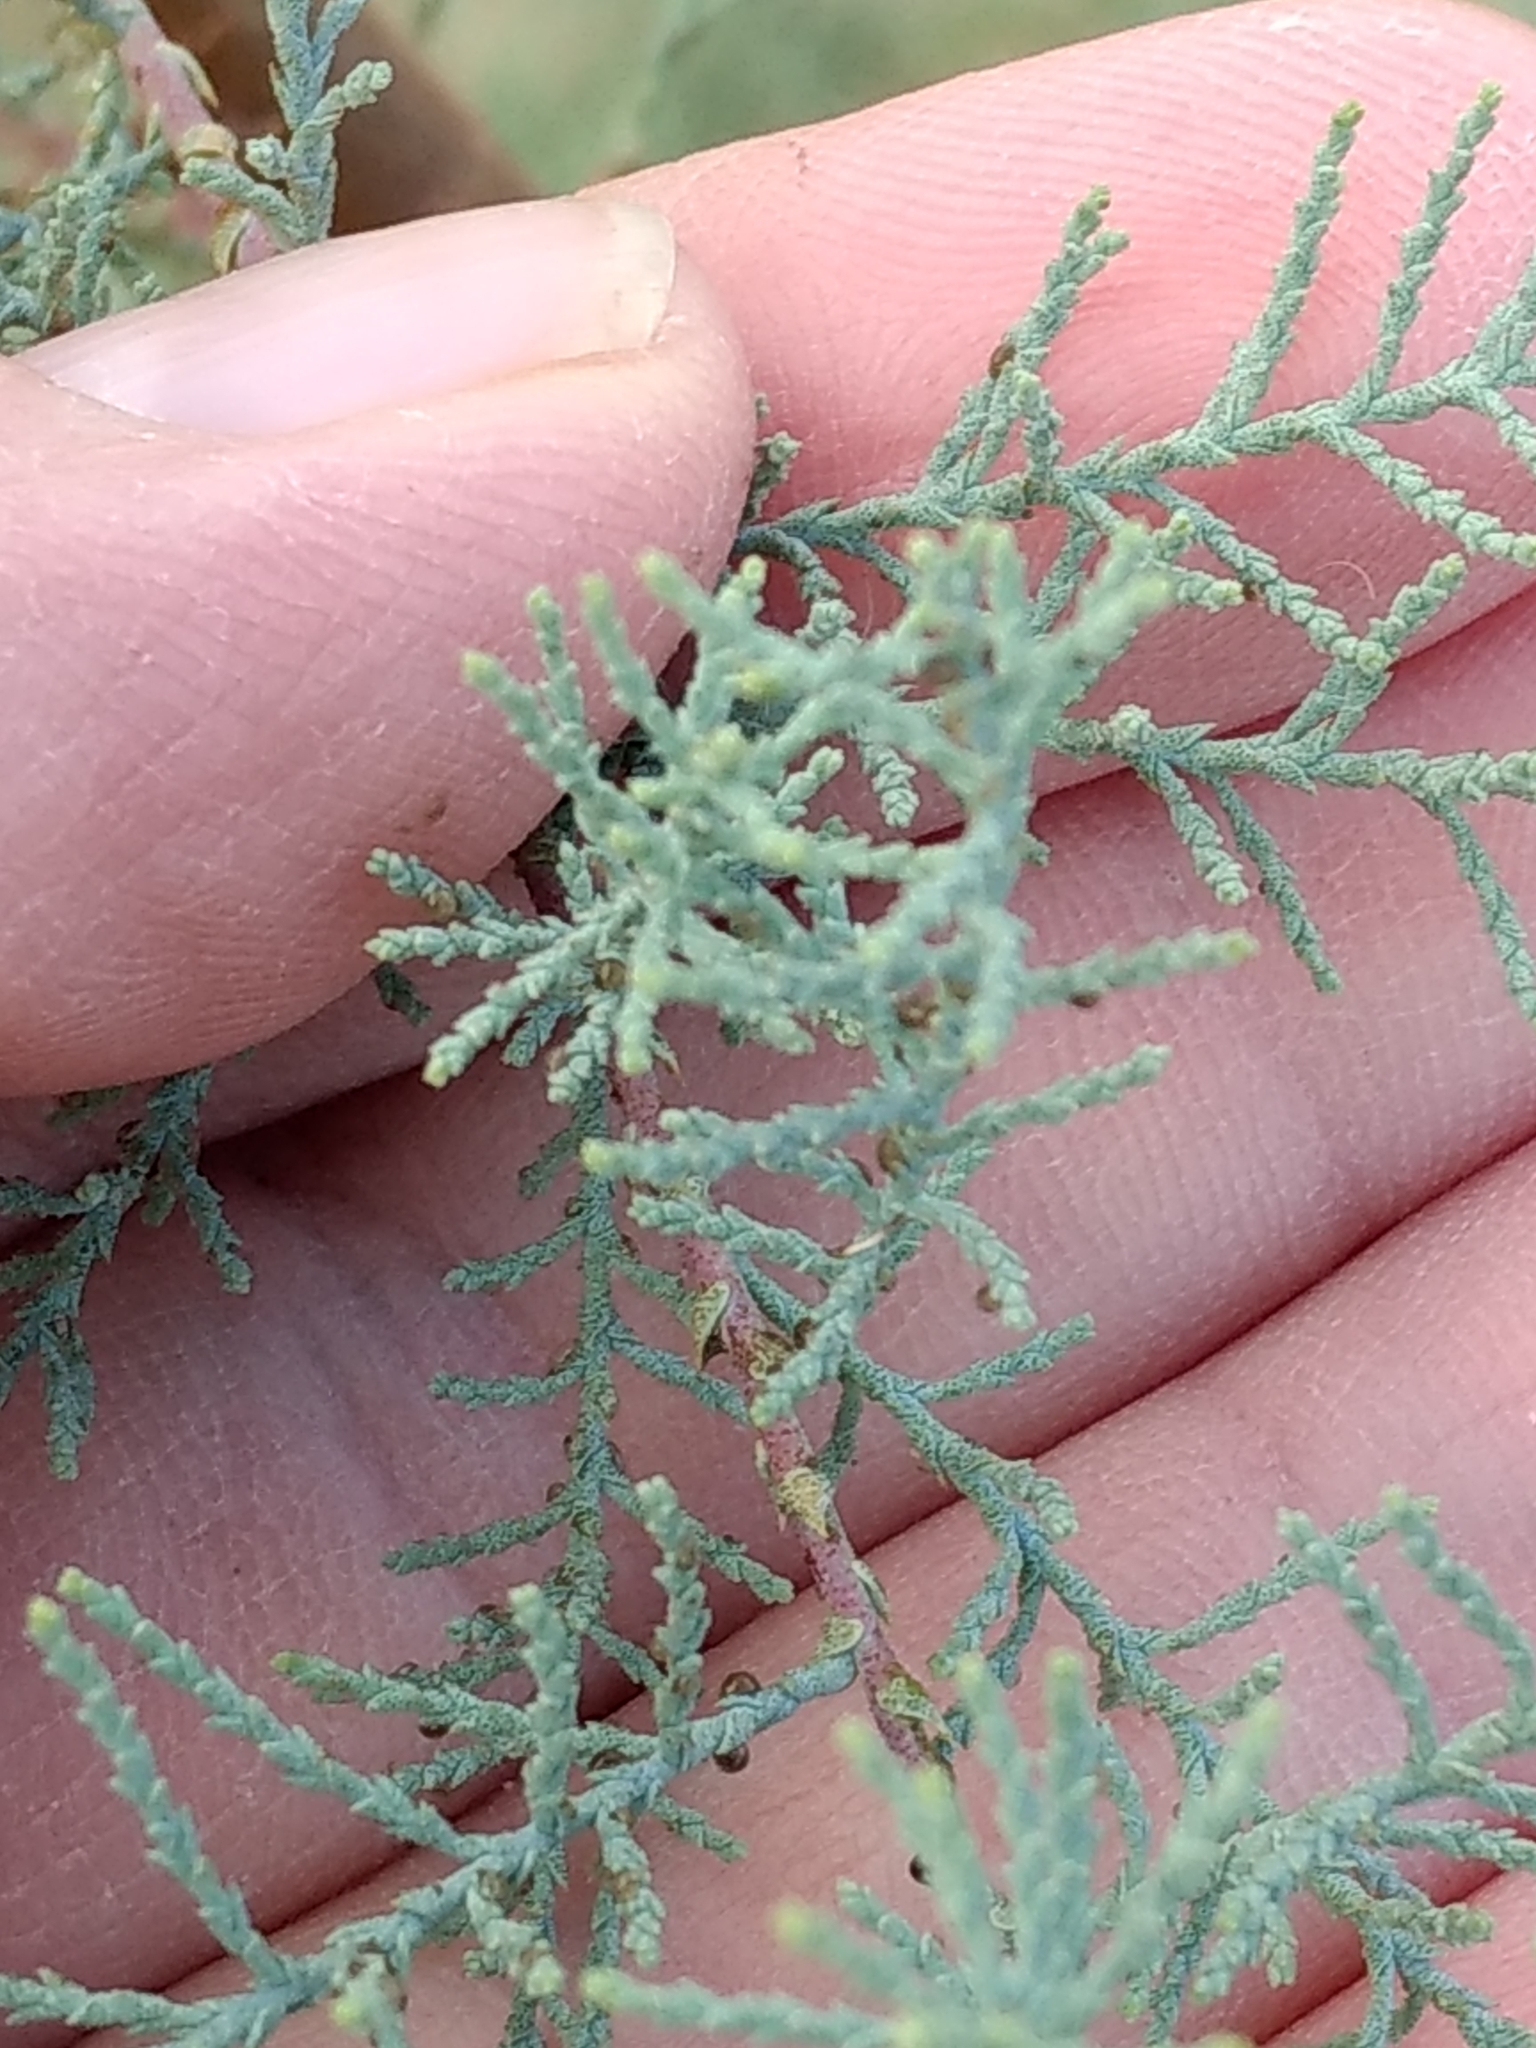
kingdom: Plantae
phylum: Tracheophyta
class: Magnoliopsida
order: Caryophyllales
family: Tamaricaceae
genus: Tamarix
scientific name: Tamarix
